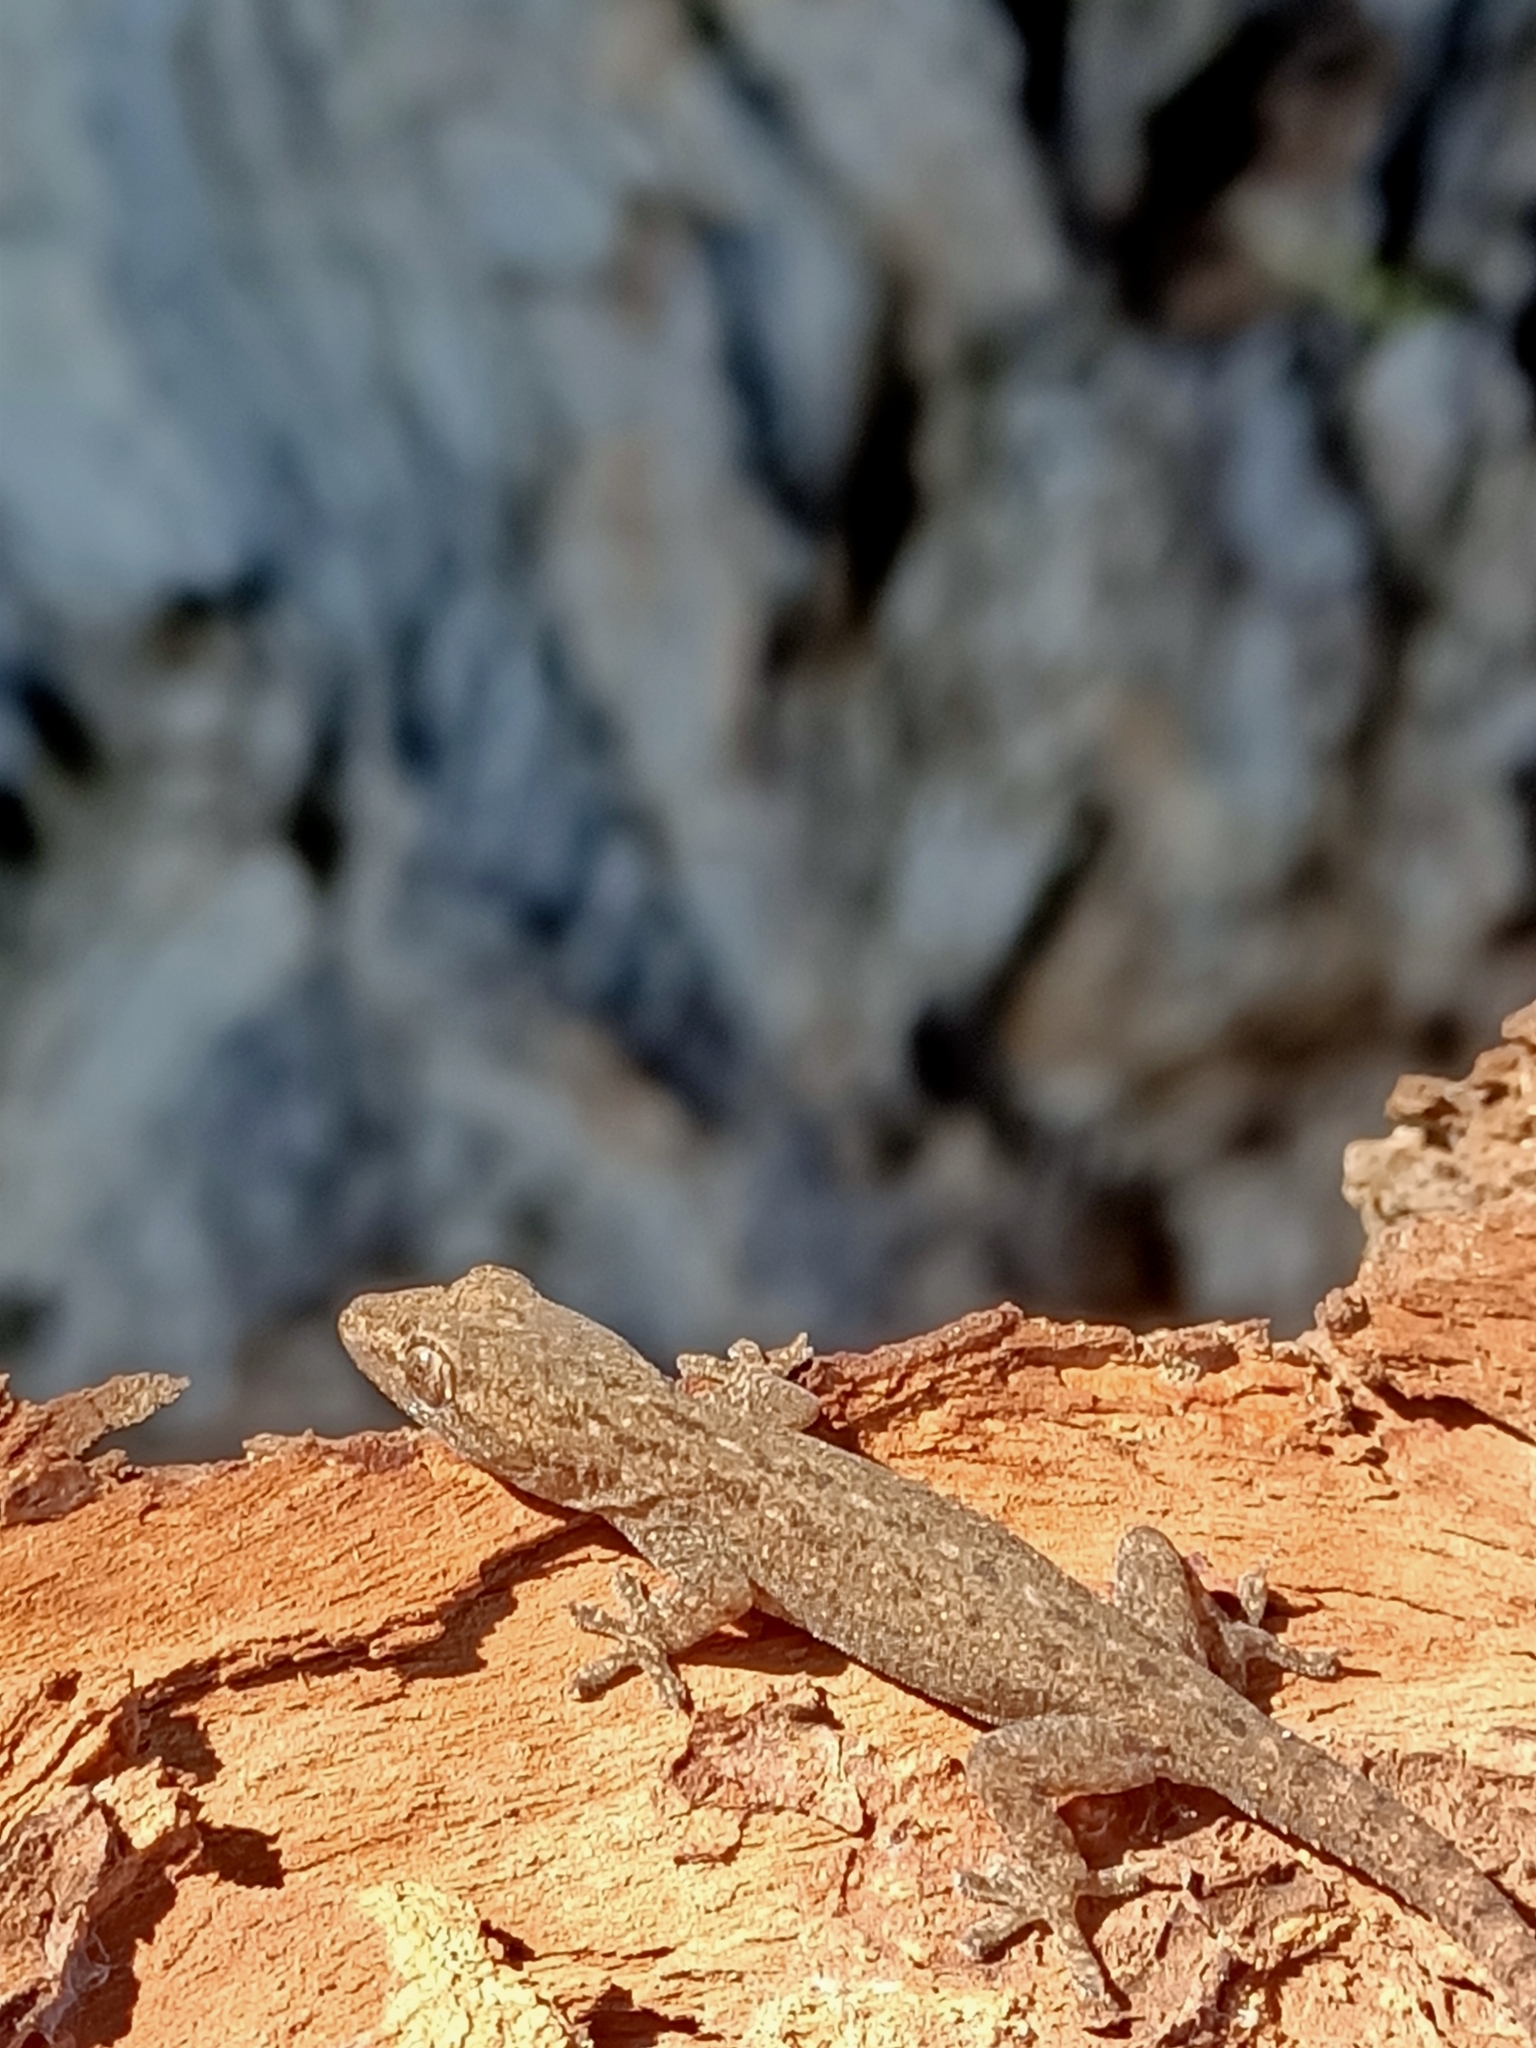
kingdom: Animalia
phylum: Chordata
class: Squamata
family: Gekkonidae
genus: Hemidactylus
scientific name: Hemidactylus frenatus
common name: Common house gecko
